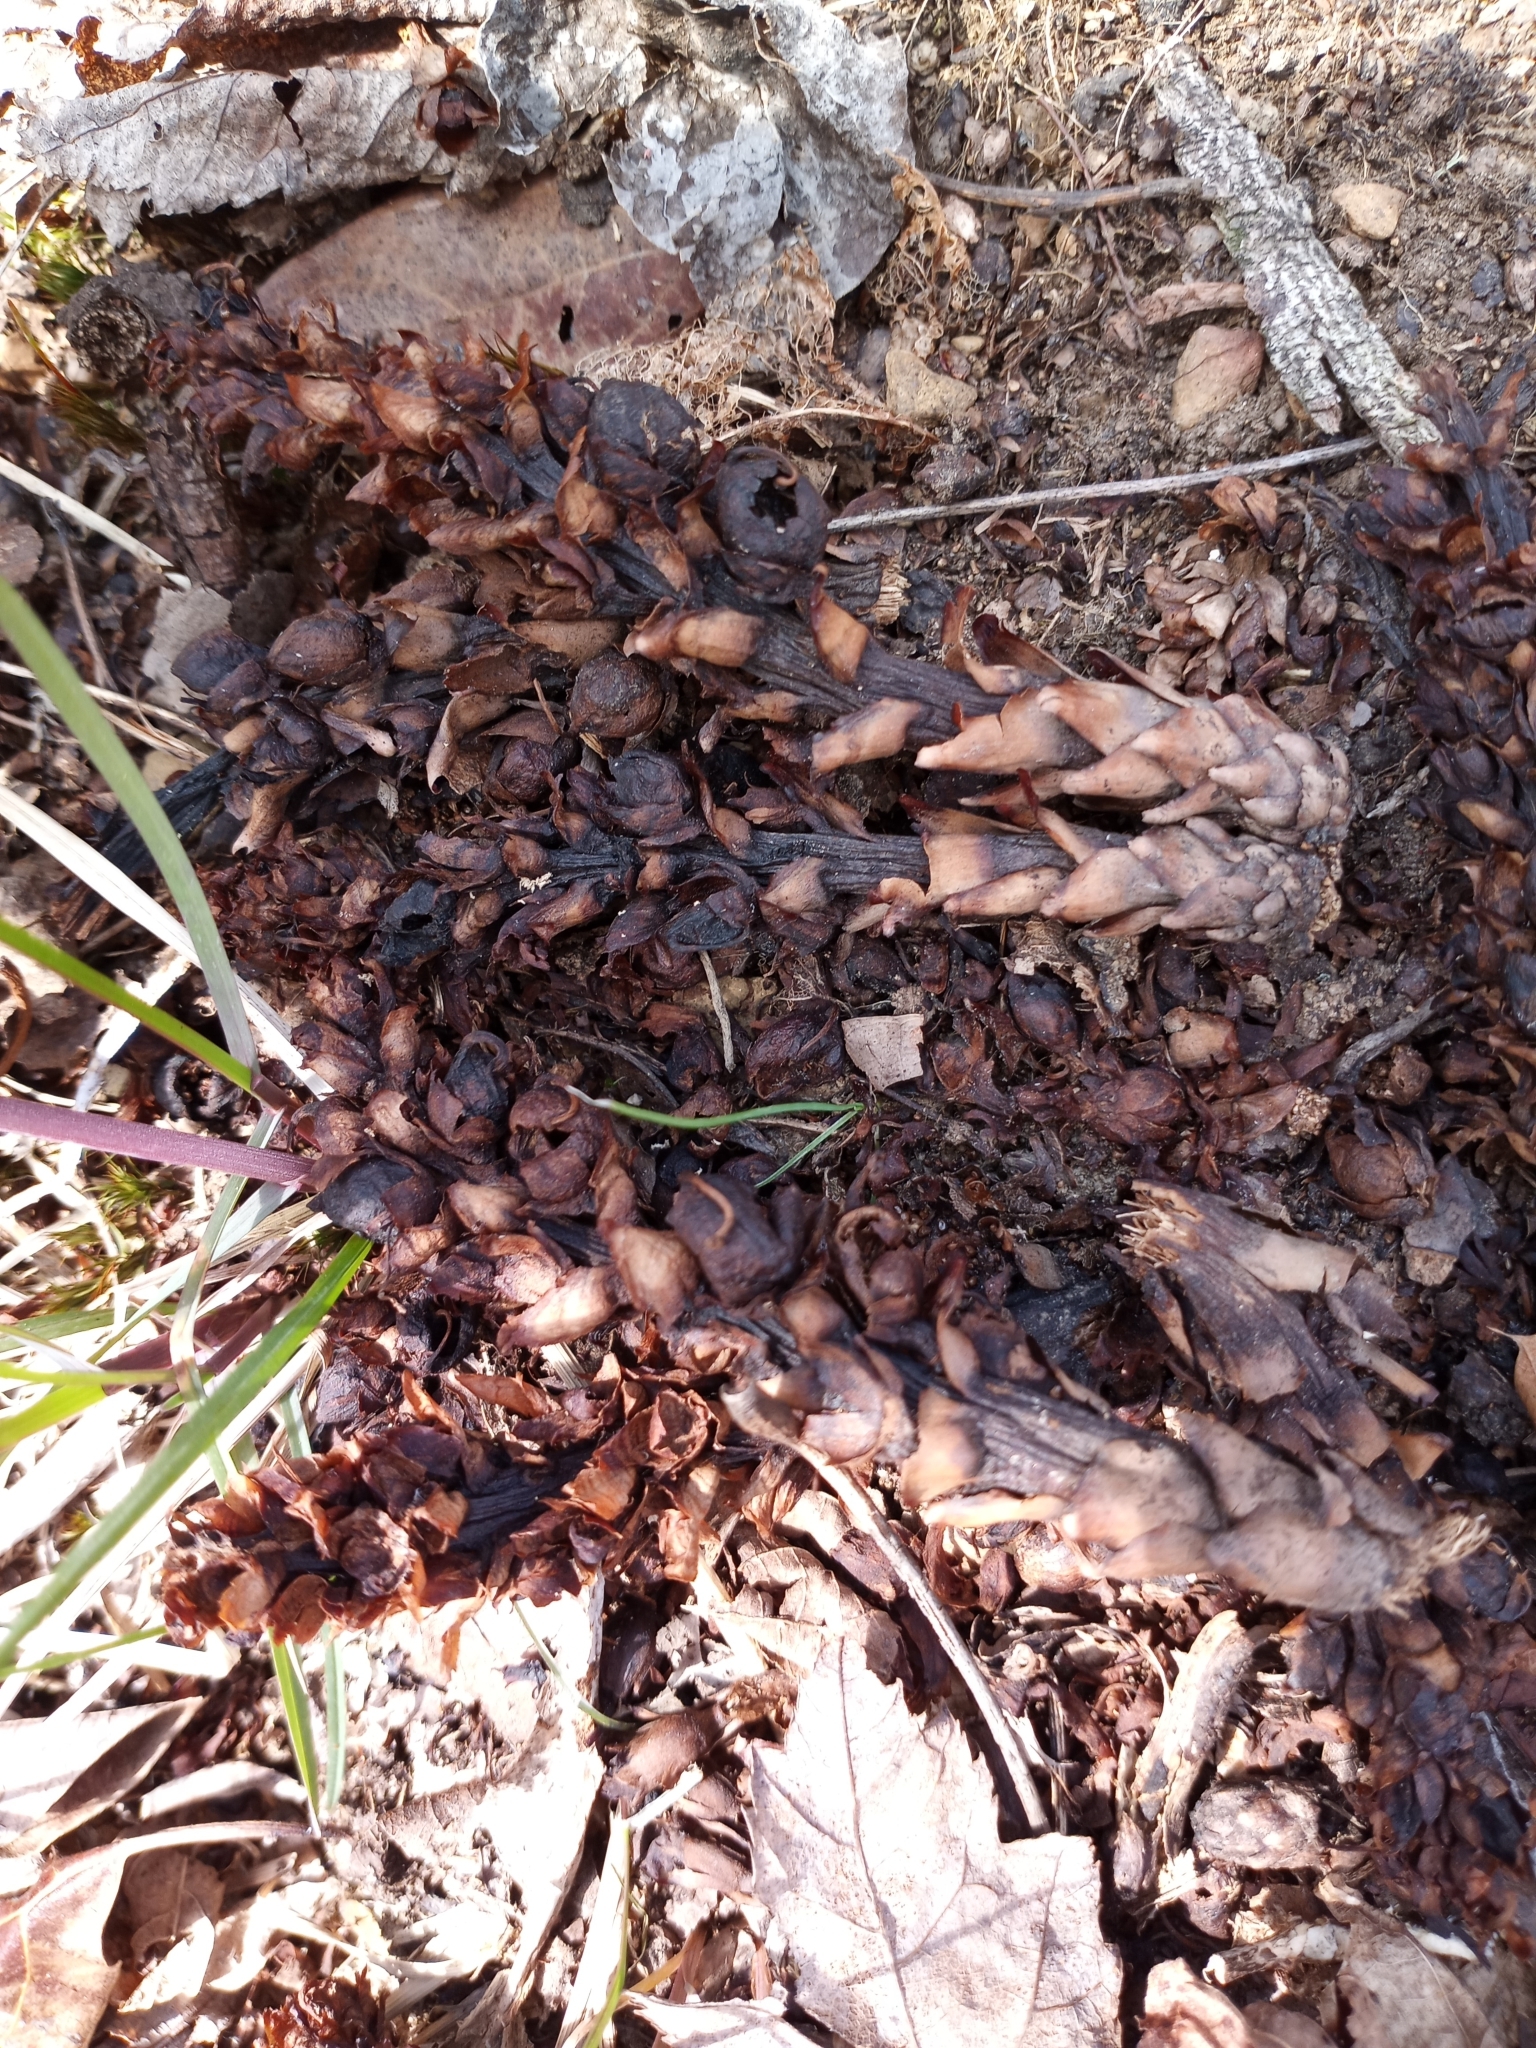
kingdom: Plantae
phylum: Tracheophyta
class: Magnoliopsida
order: Lamiales
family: Orobanchaceae
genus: Conopholis
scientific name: Conopholis americana
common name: American cancer-root
